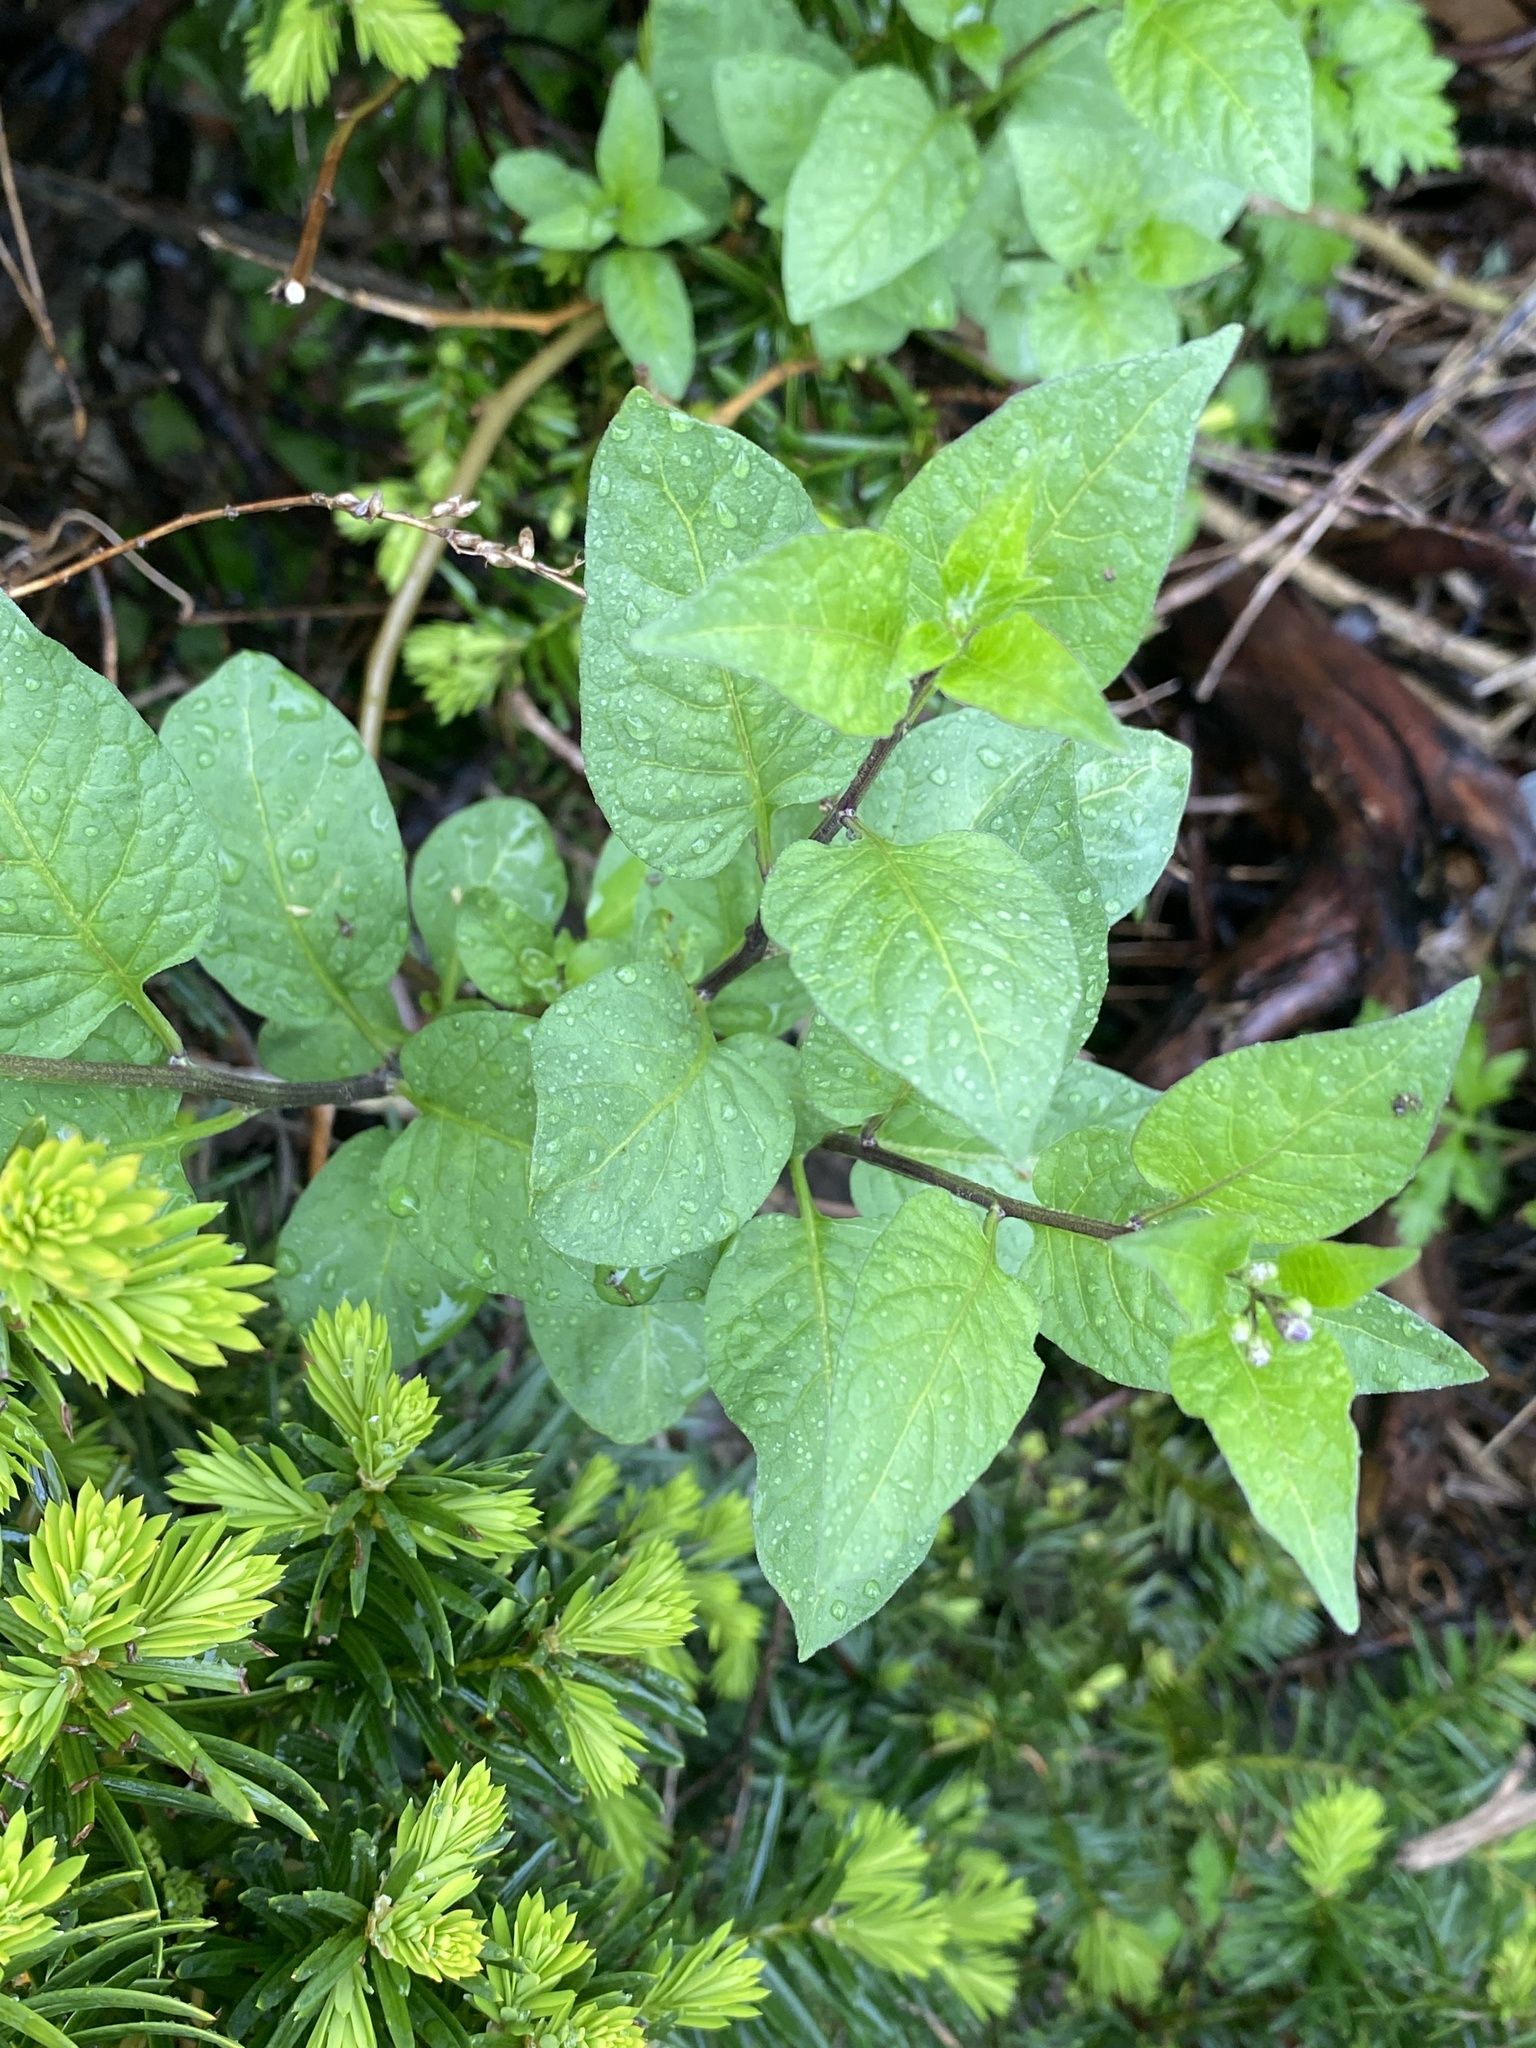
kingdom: Plantae
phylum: Tracheophyta
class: Magnoliopsida
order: Solanales
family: Solanaceae
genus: Solanum
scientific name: Solanum dulcamara
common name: Climbing nightshade
